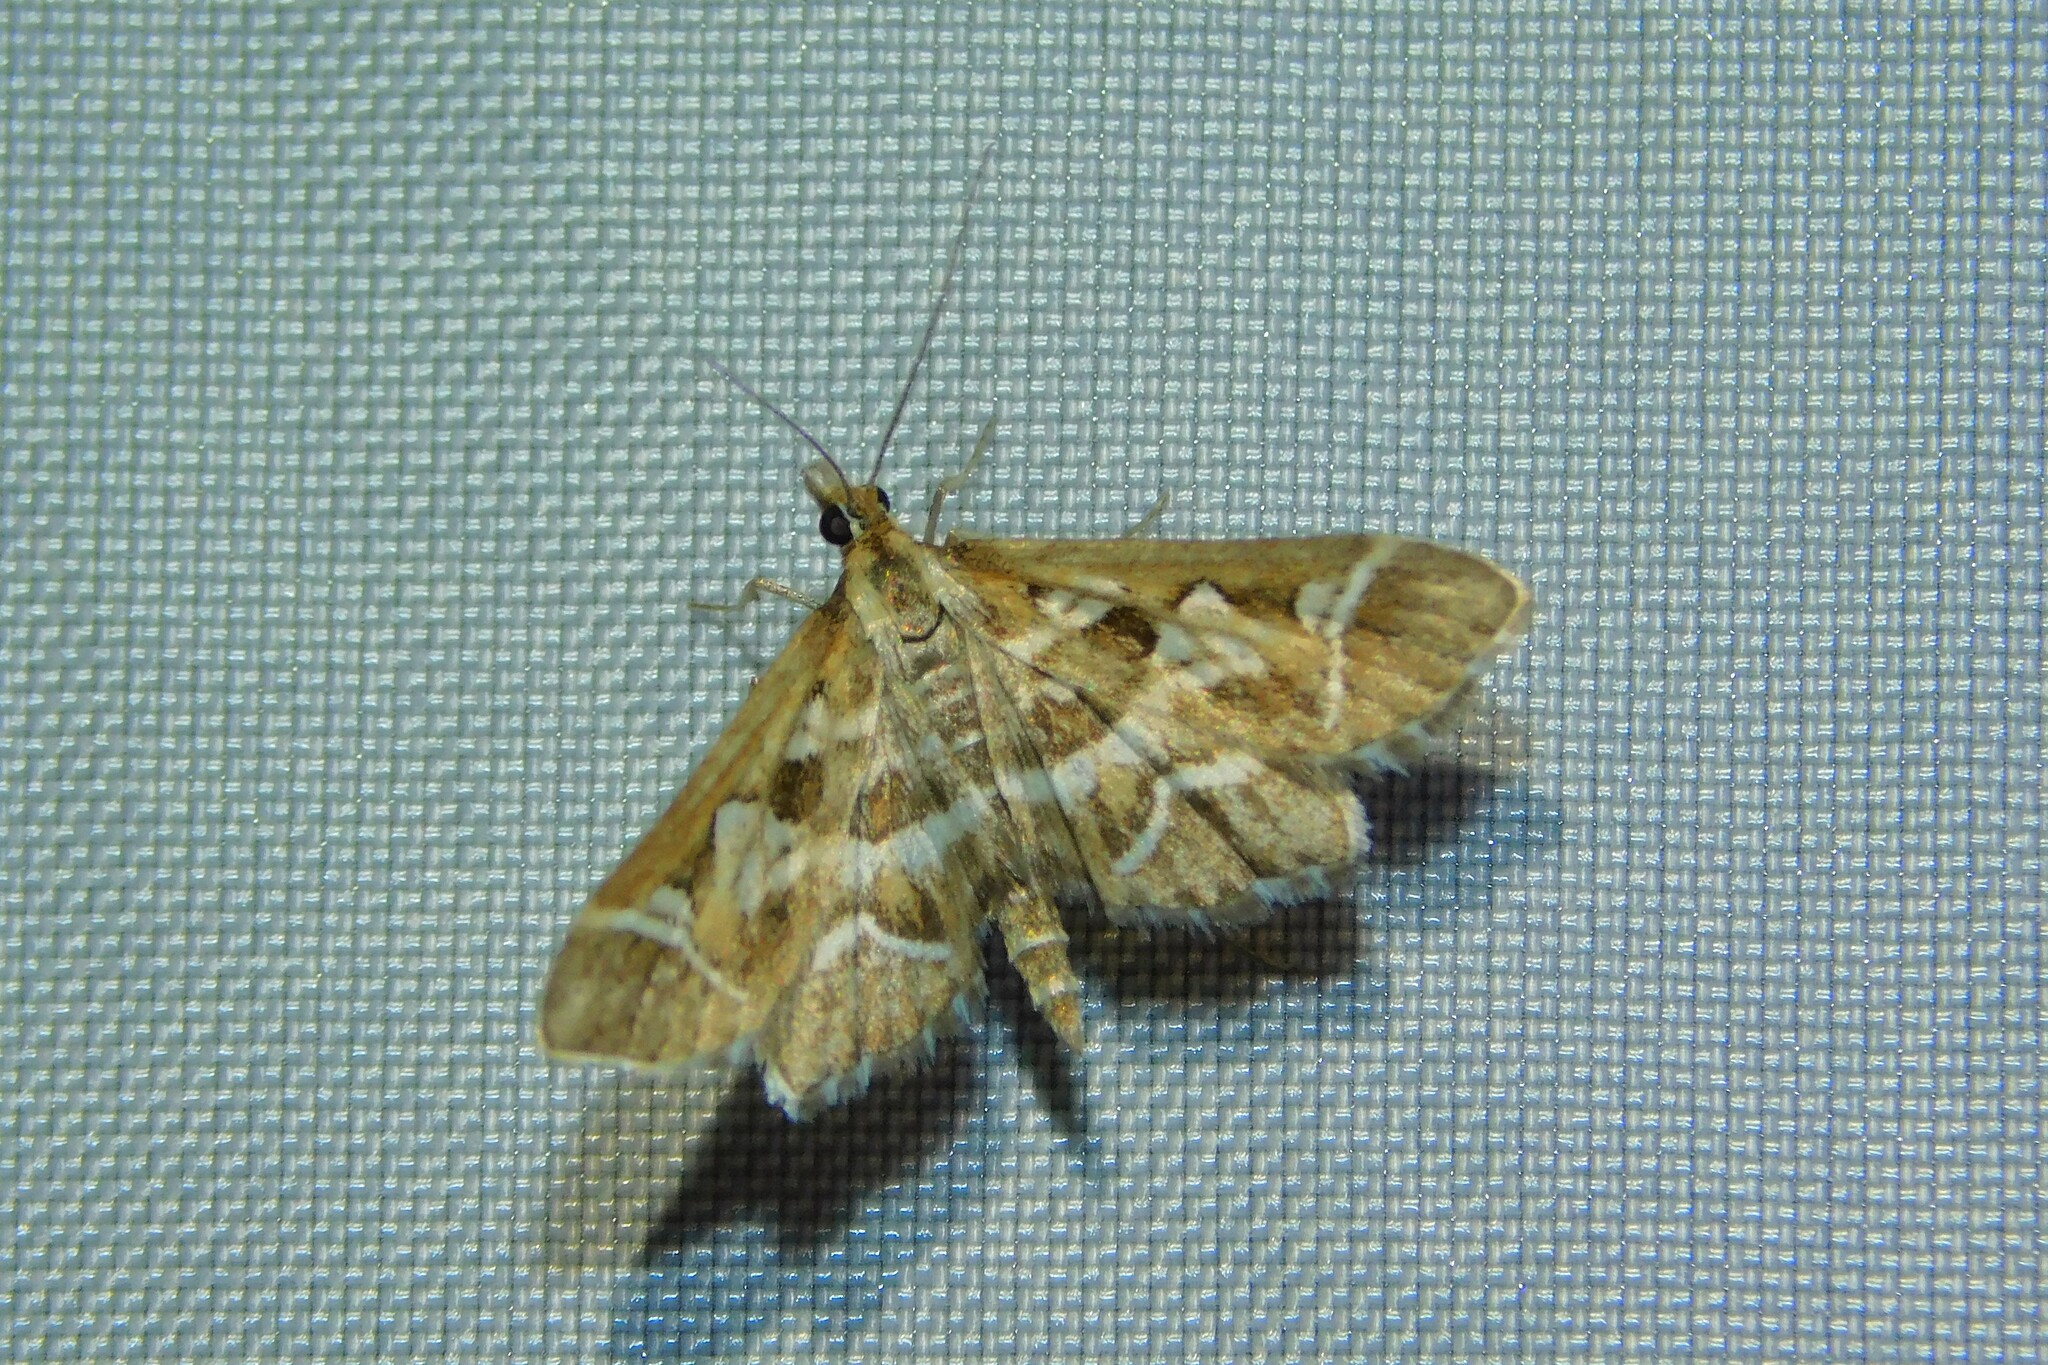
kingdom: Animalia
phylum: Arthropoda
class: Insecta
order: Lepidoptera
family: Crambidae
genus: Diasemia
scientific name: Diasemia reticularis
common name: Lettered china-mark
